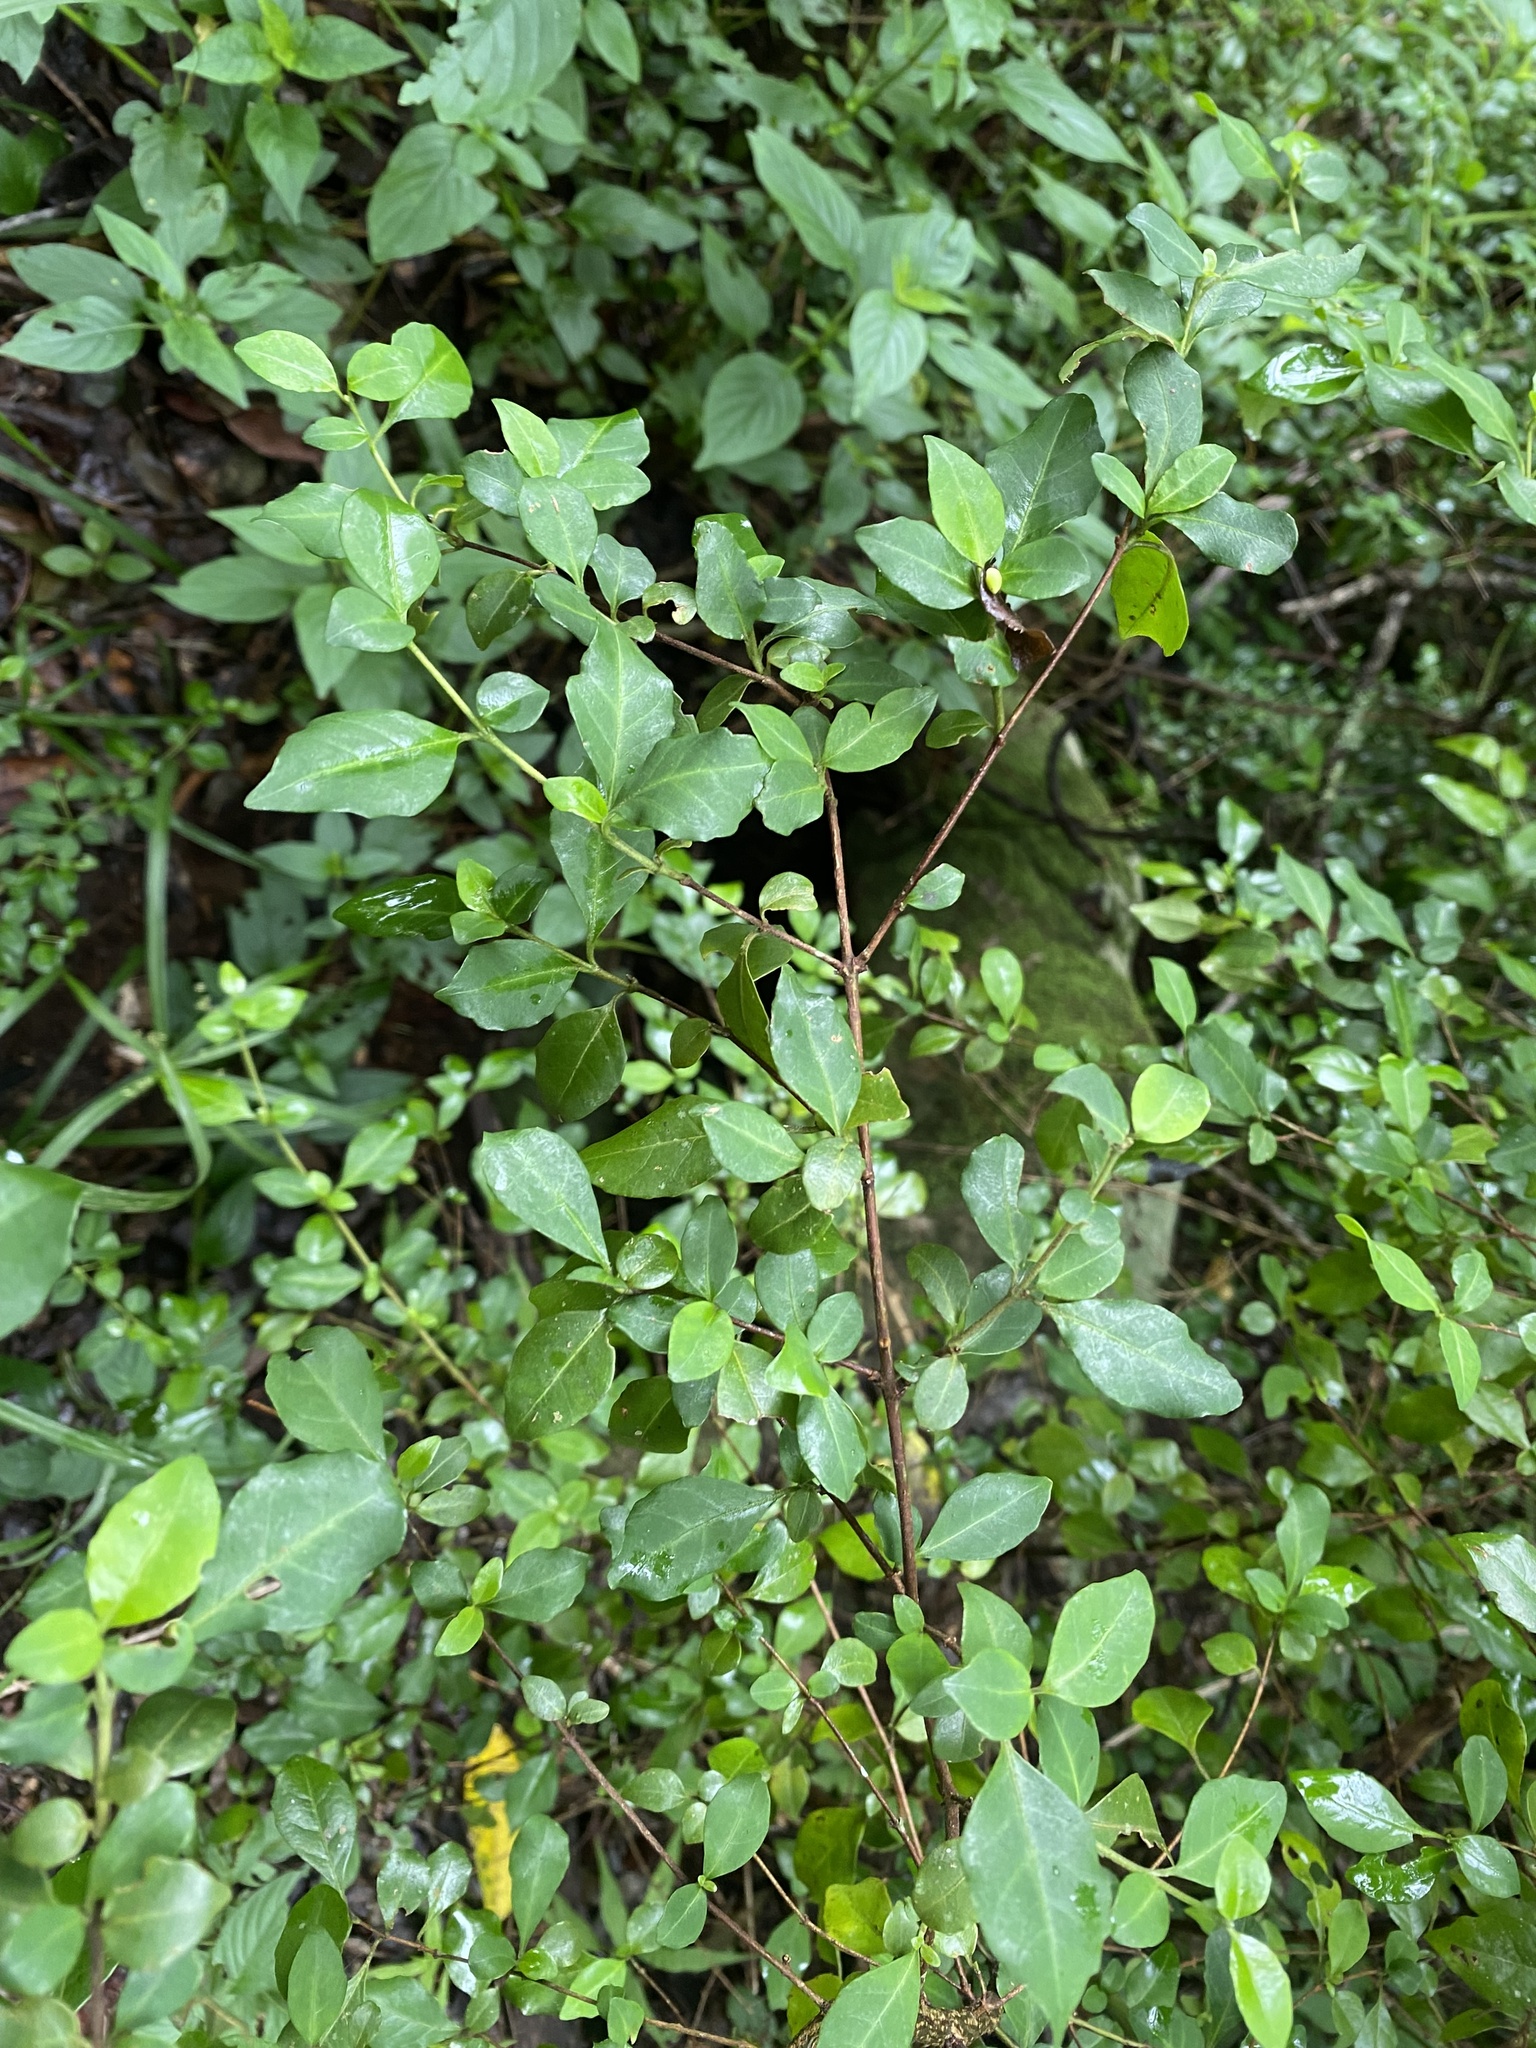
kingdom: Plantae
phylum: Tracheophyta
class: Magnoliopsida
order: Lamiales
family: Acanthaceae
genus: Sclerochiton
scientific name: Sclerochiton harveyanus
